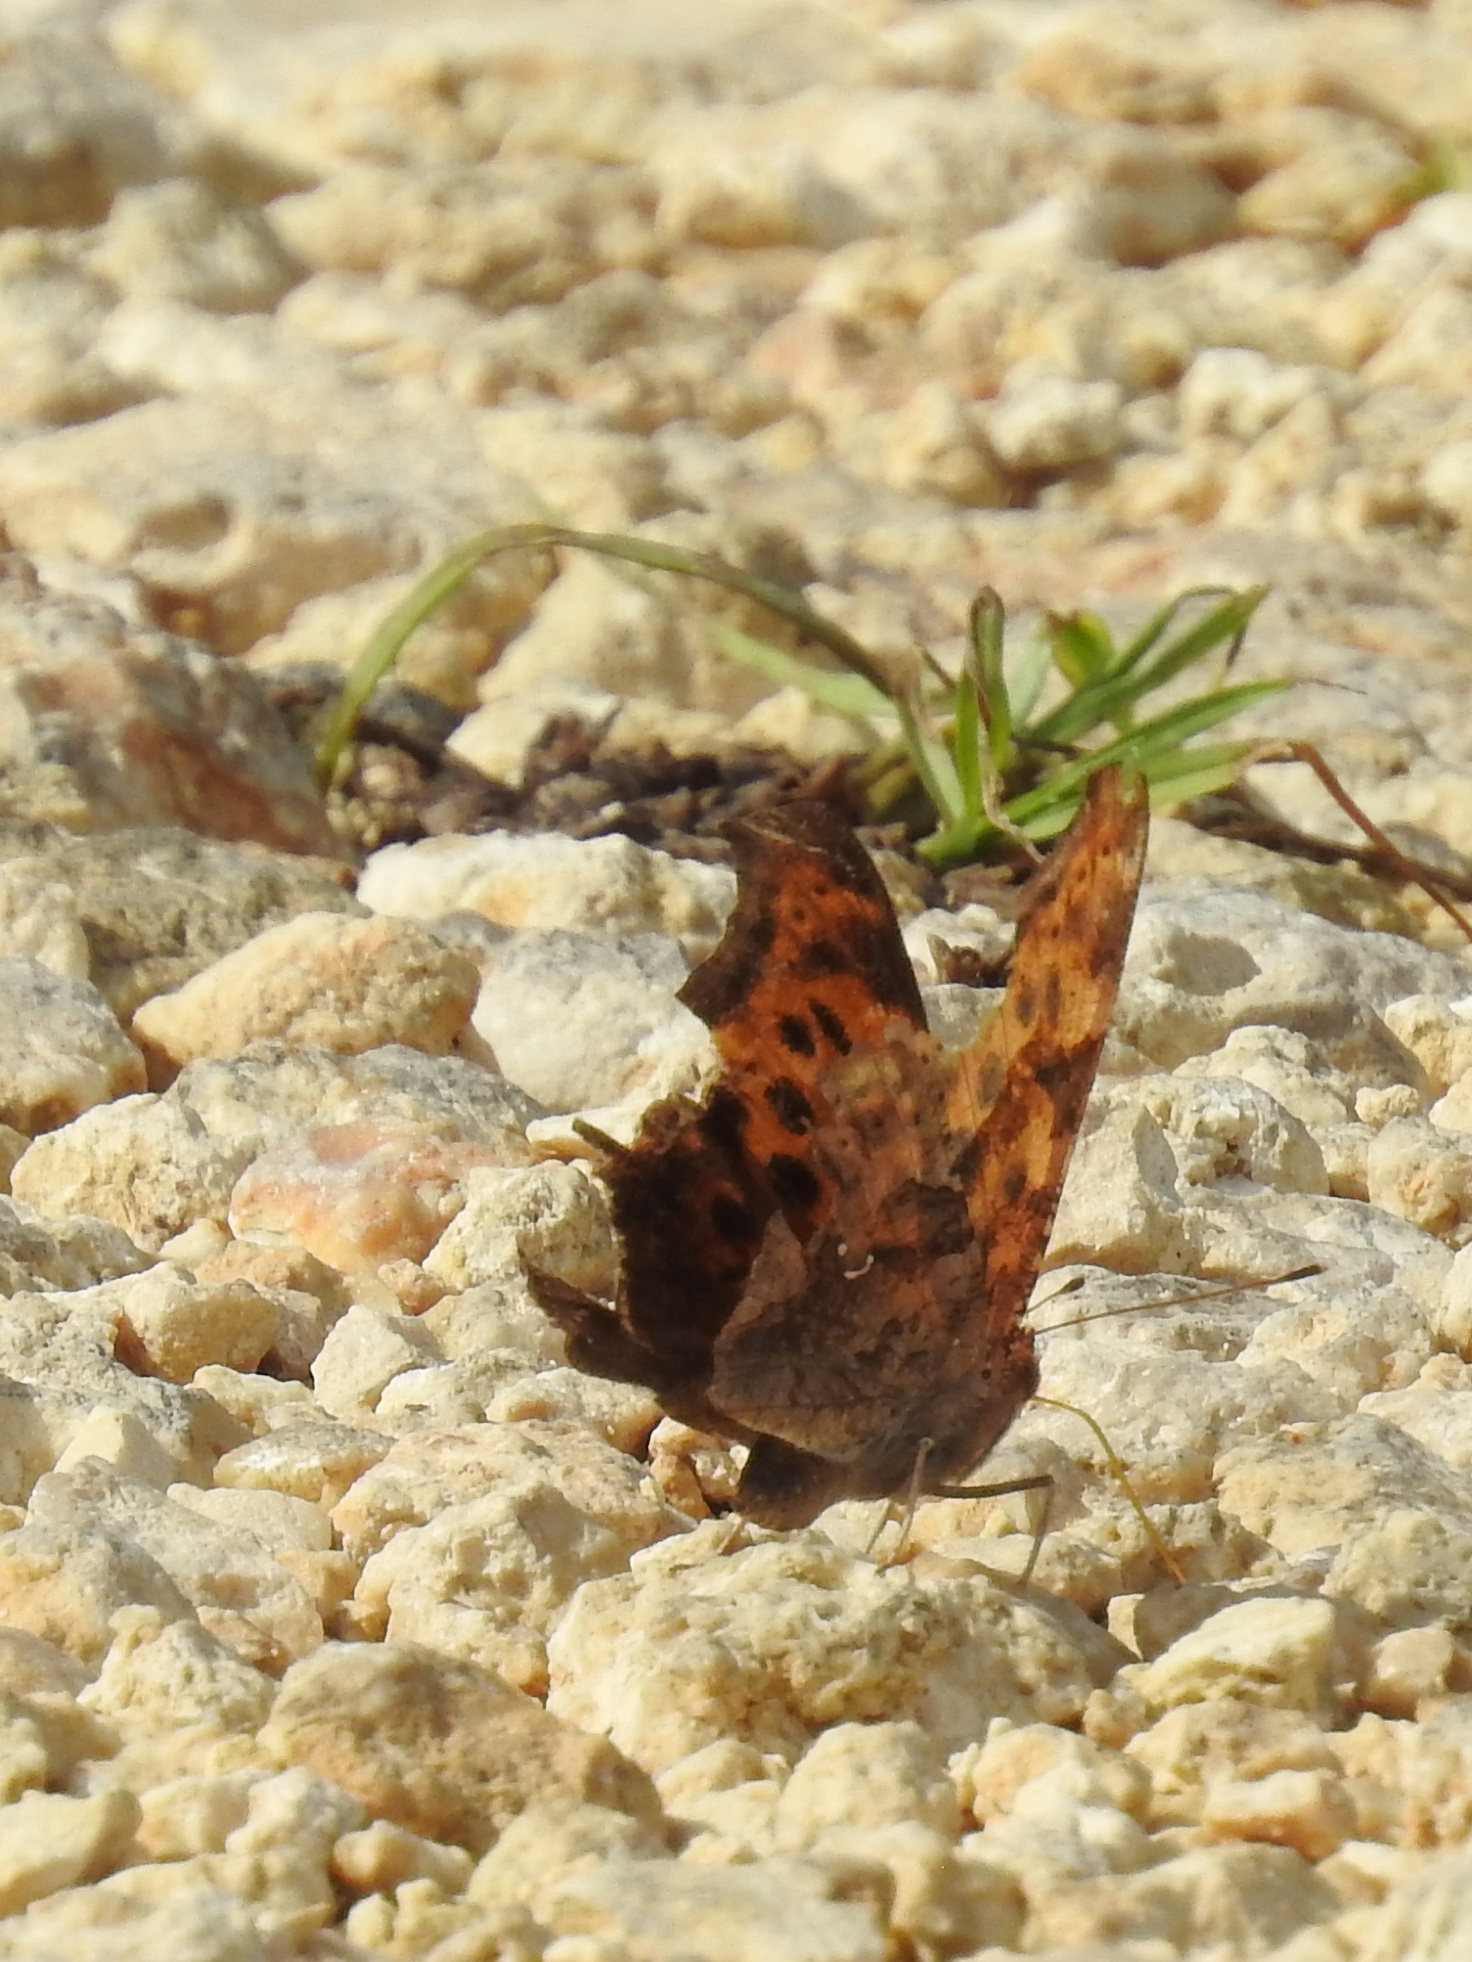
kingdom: Animalia
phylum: Arthropoda
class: Insecta
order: Lepidoptera
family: Nymphalidae
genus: Polygonia
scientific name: Polygonia interrogationis
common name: Question mark
